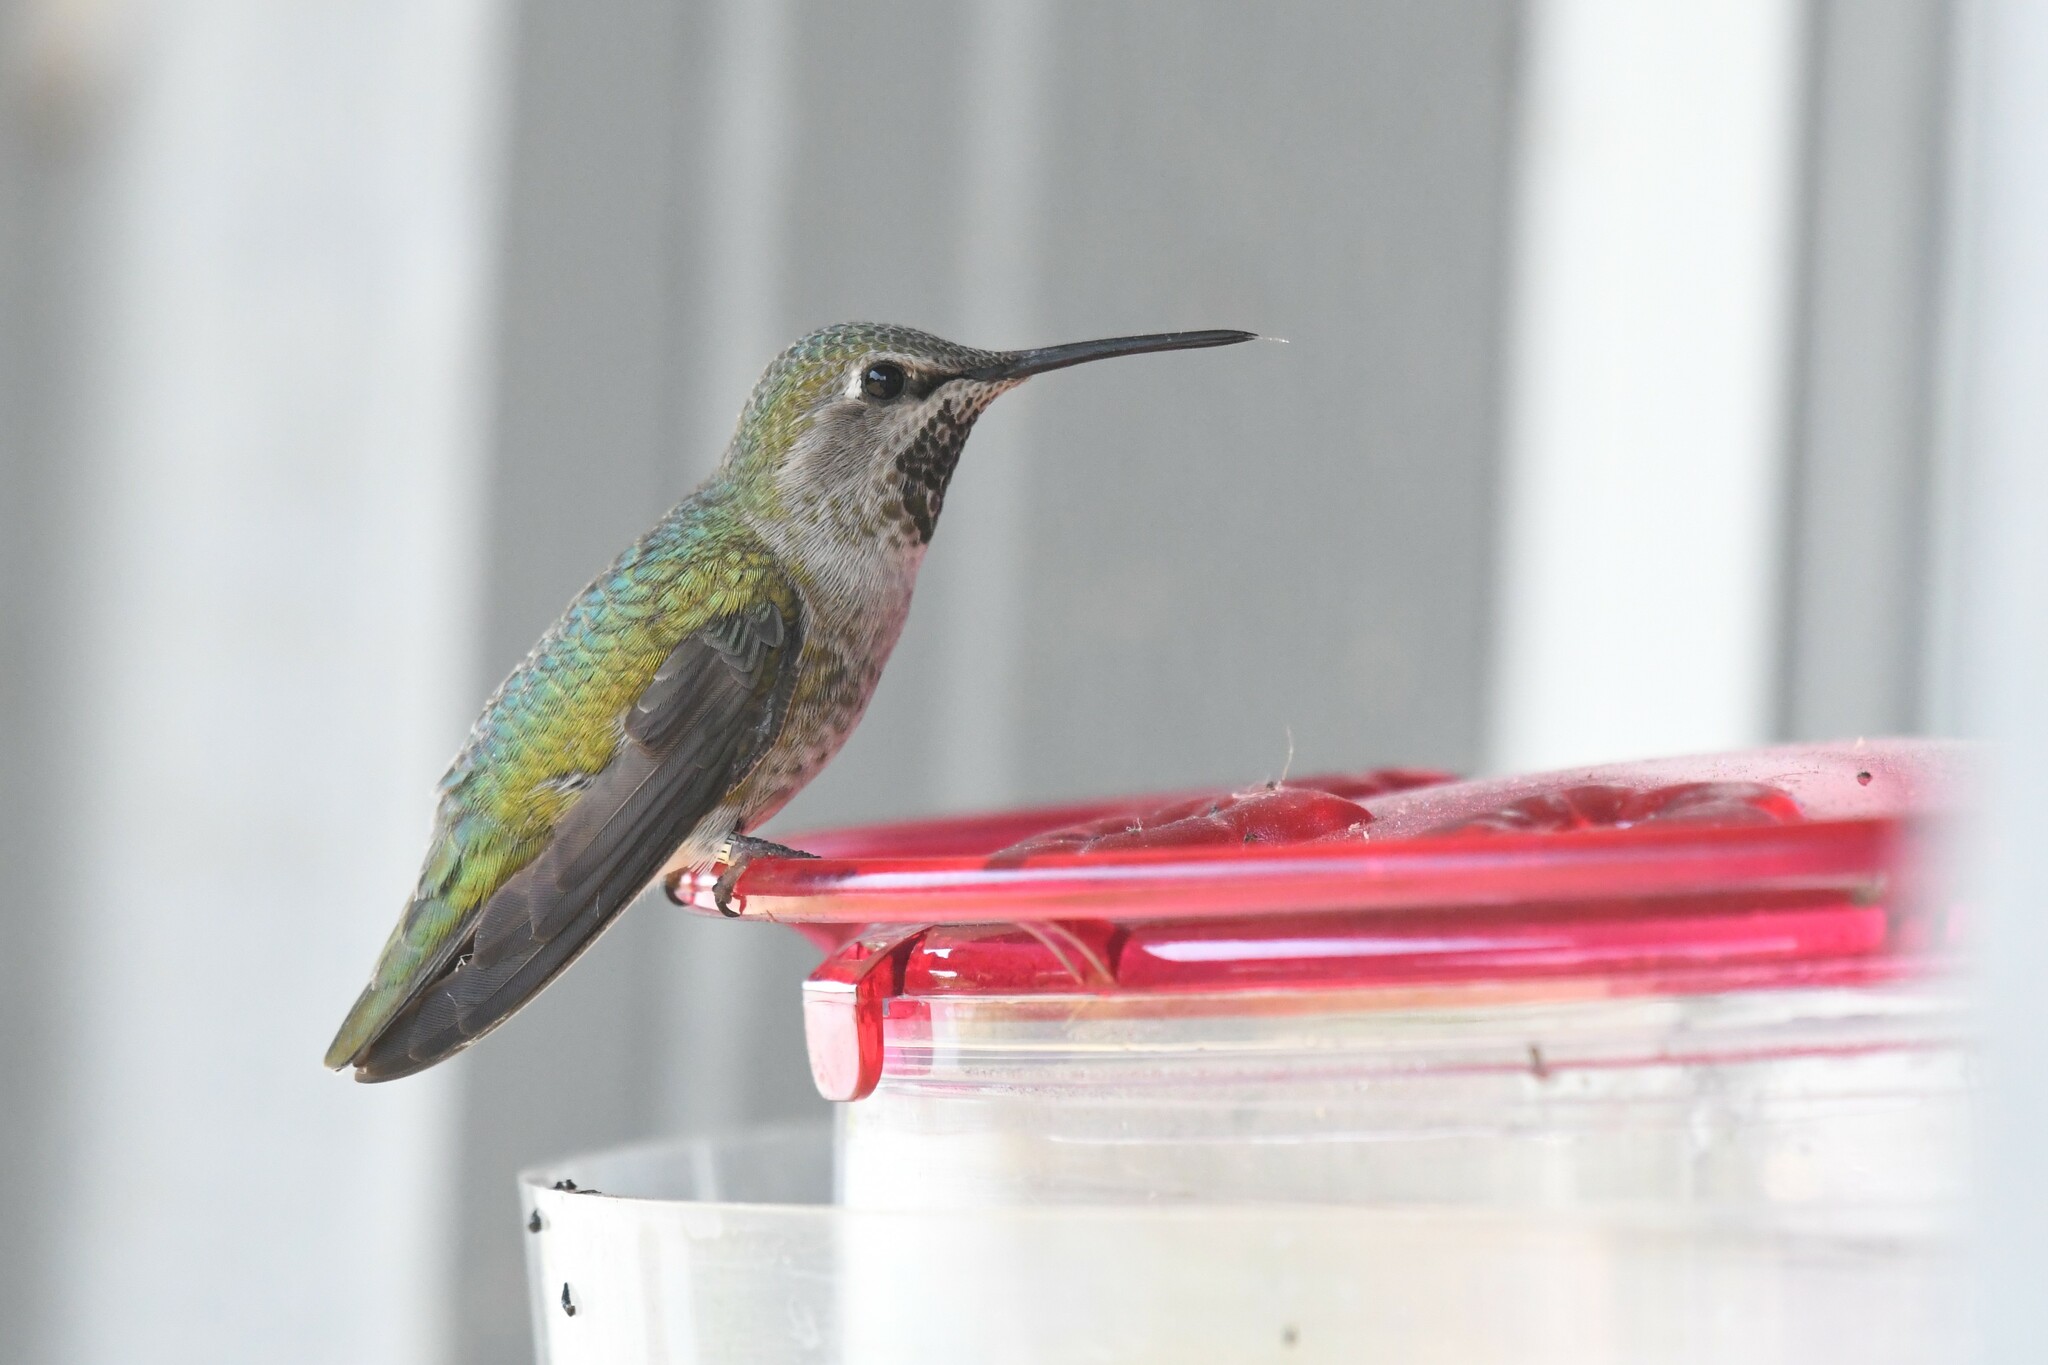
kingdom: Animalia
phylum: Chordata
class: Aves
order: Apodiformes
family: Trochilidae
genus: Calypte
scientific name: Calypte anna
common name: Anna's hummingbird
